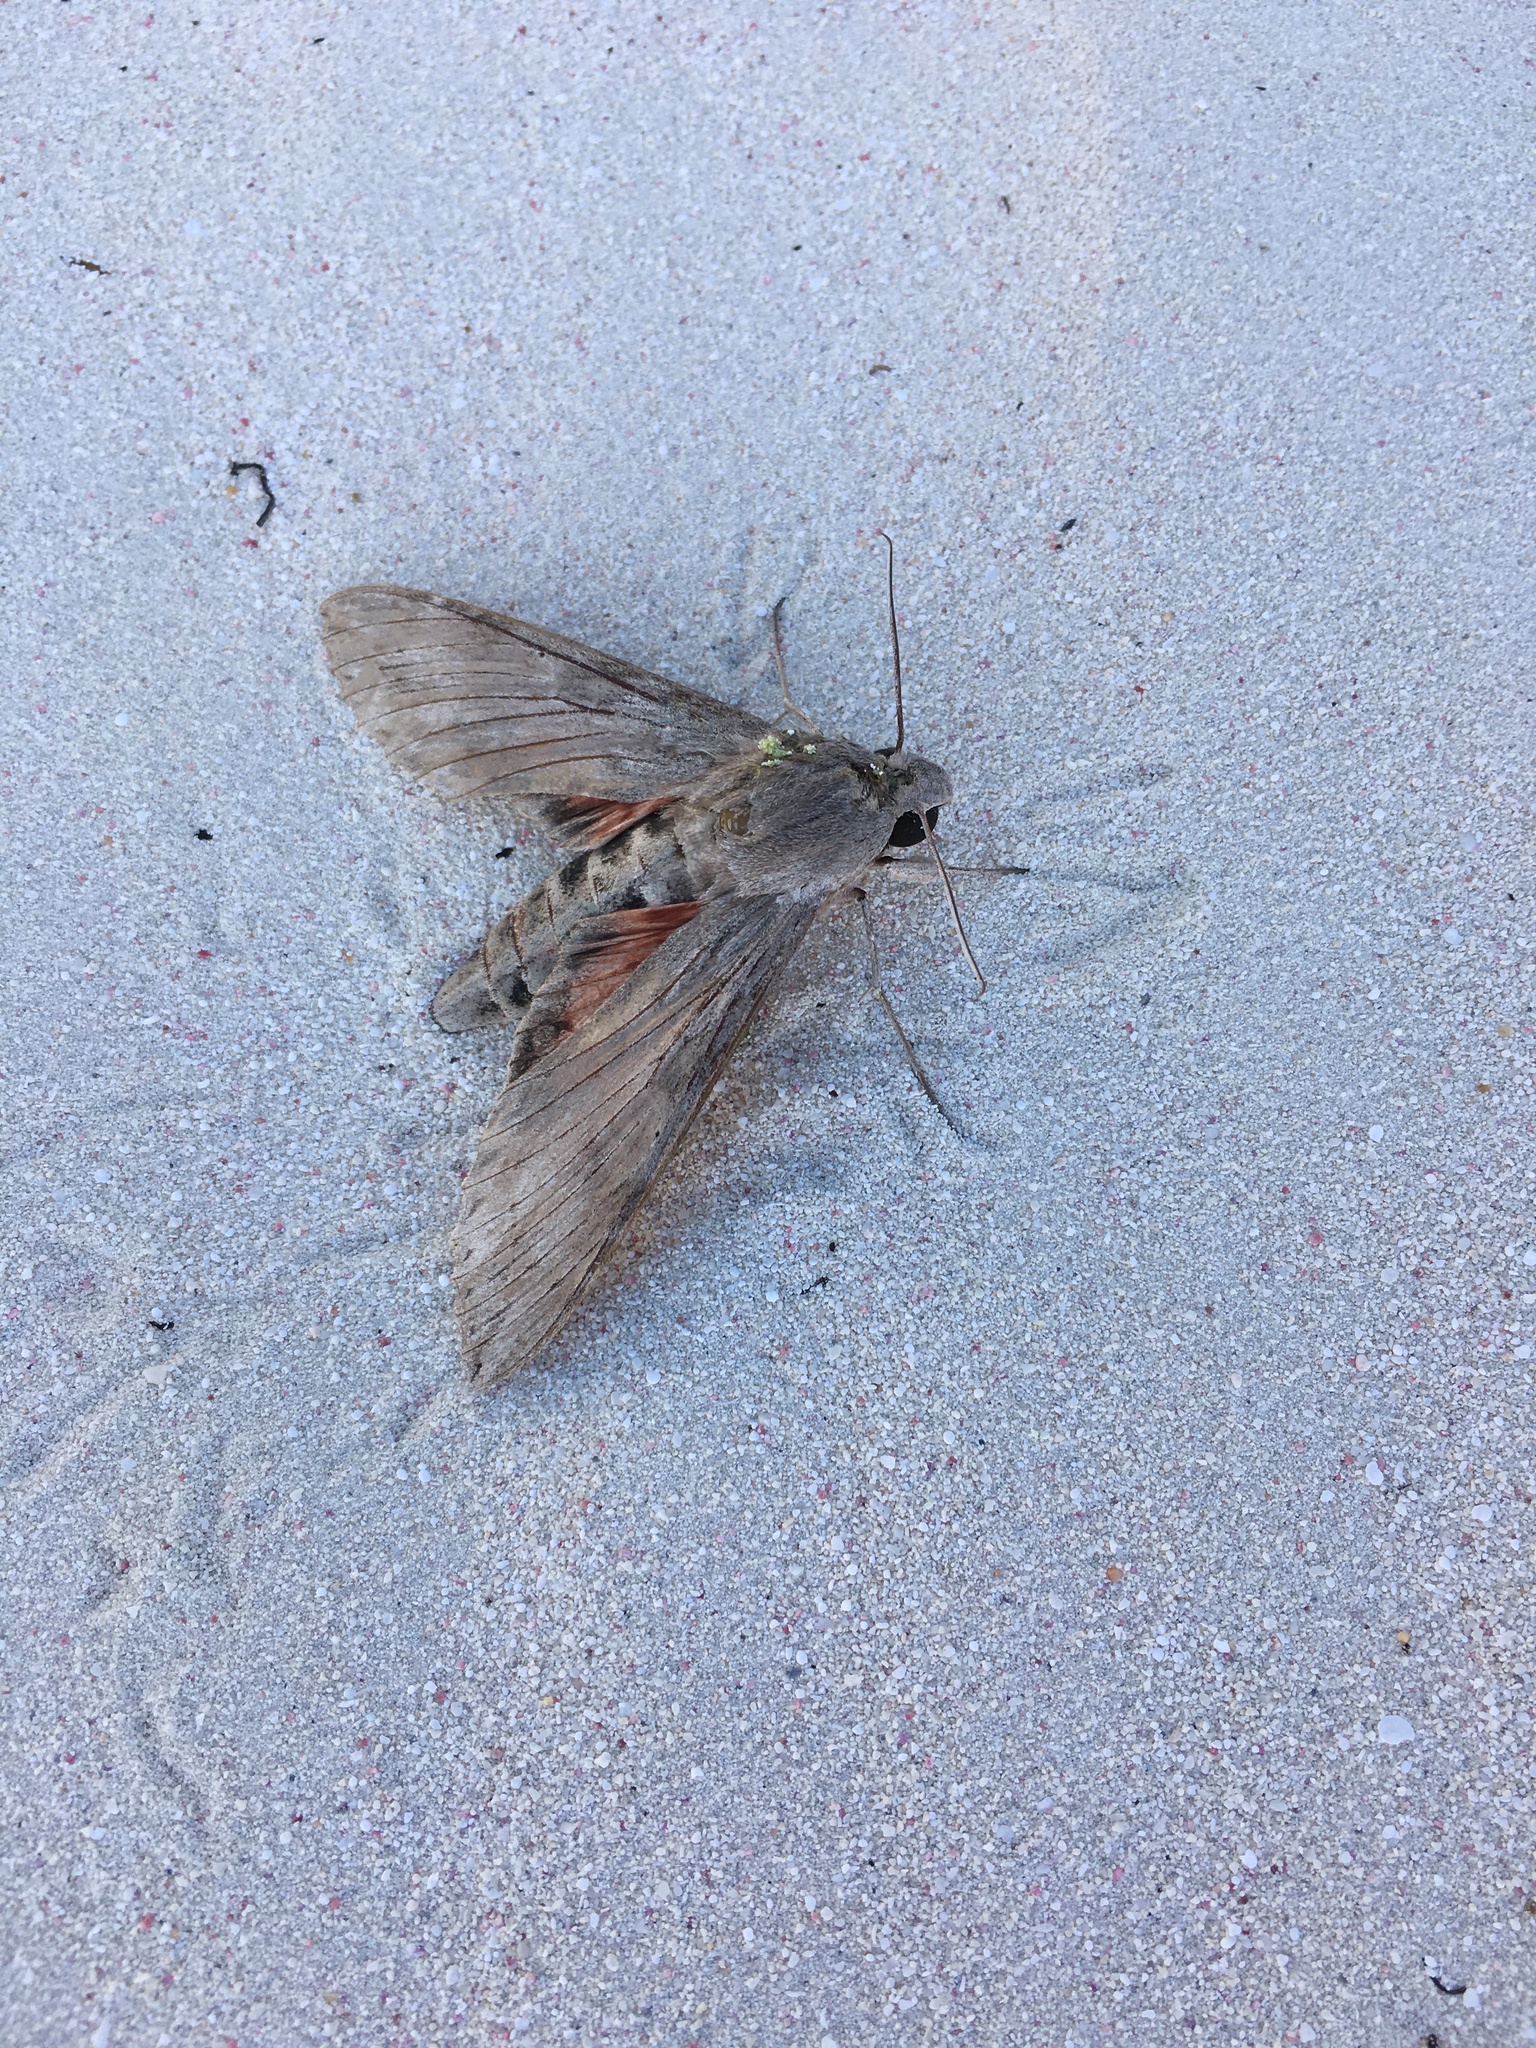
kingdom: Animalia
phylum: Arthropoda
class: Insecta
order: Lepidoptera
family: Sphingidae
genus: Erinnyis
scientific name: Erinnyis ello
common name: Ello sphinx
